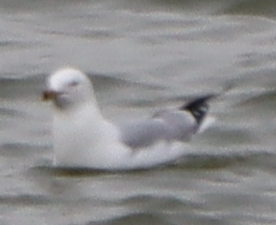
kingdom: Animalia
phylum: Chordata
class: Aves
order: Charadriiformes
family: Laridae
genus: Larus
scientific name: Larus delawarensis
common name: Ring-billed gull
